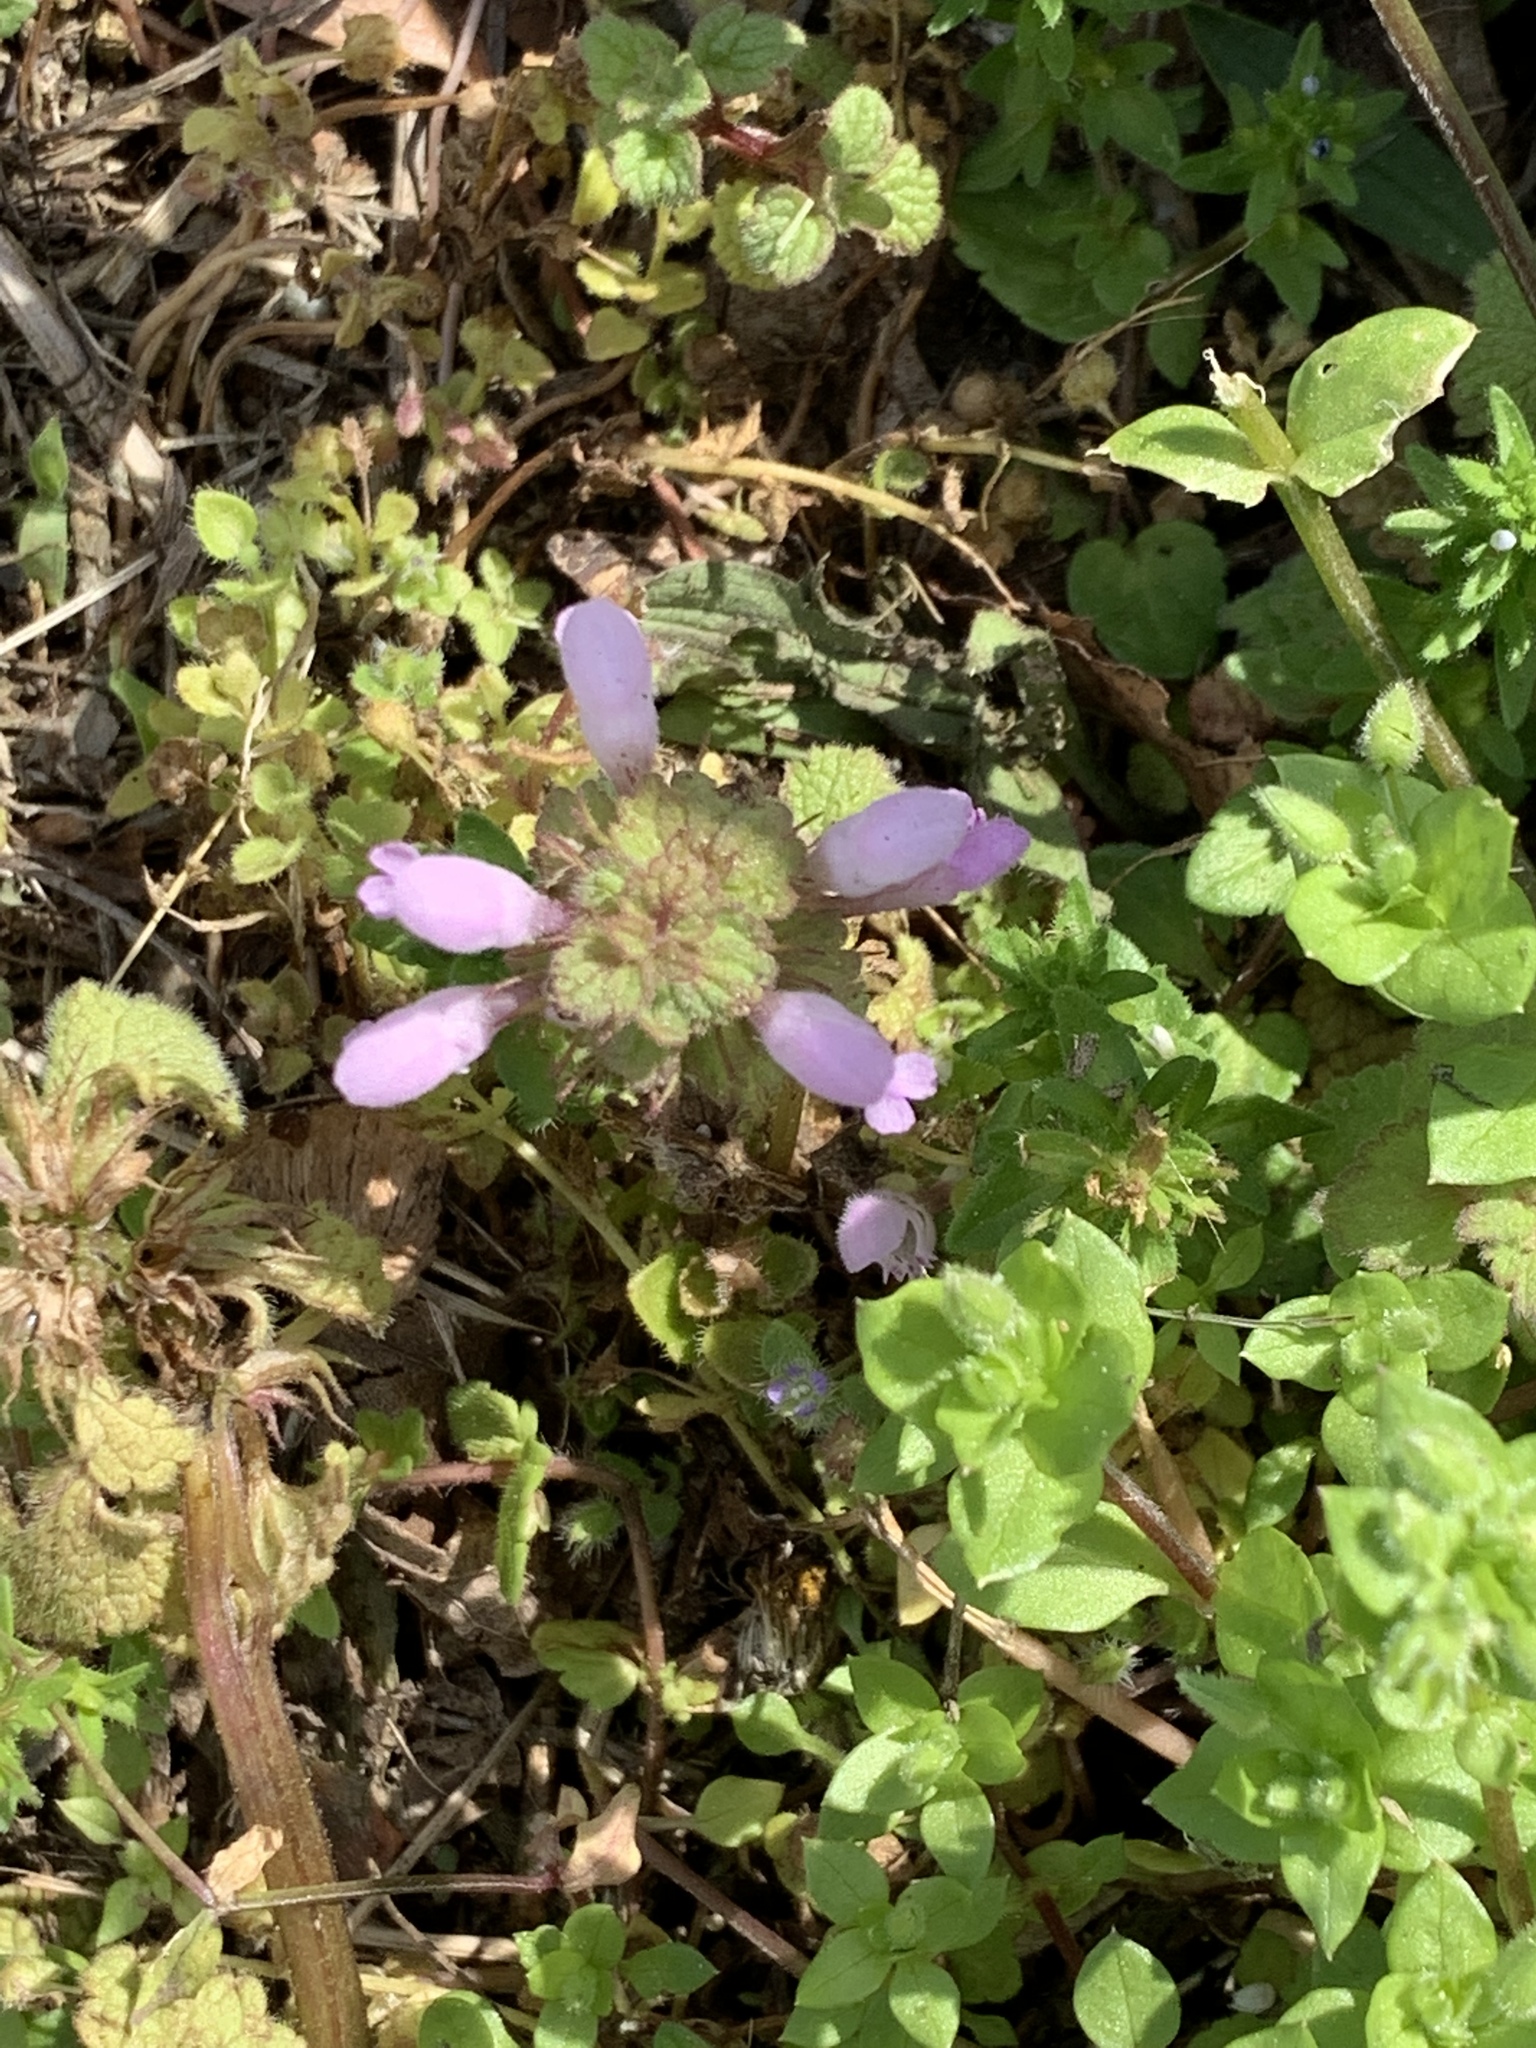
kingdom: Plantae
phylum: Tracheophyta
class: Magnoliopsida
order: Lamiales
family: Lamiaceae
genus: Lamium
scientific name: Lamium purpureum
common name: Red dead-nettle
